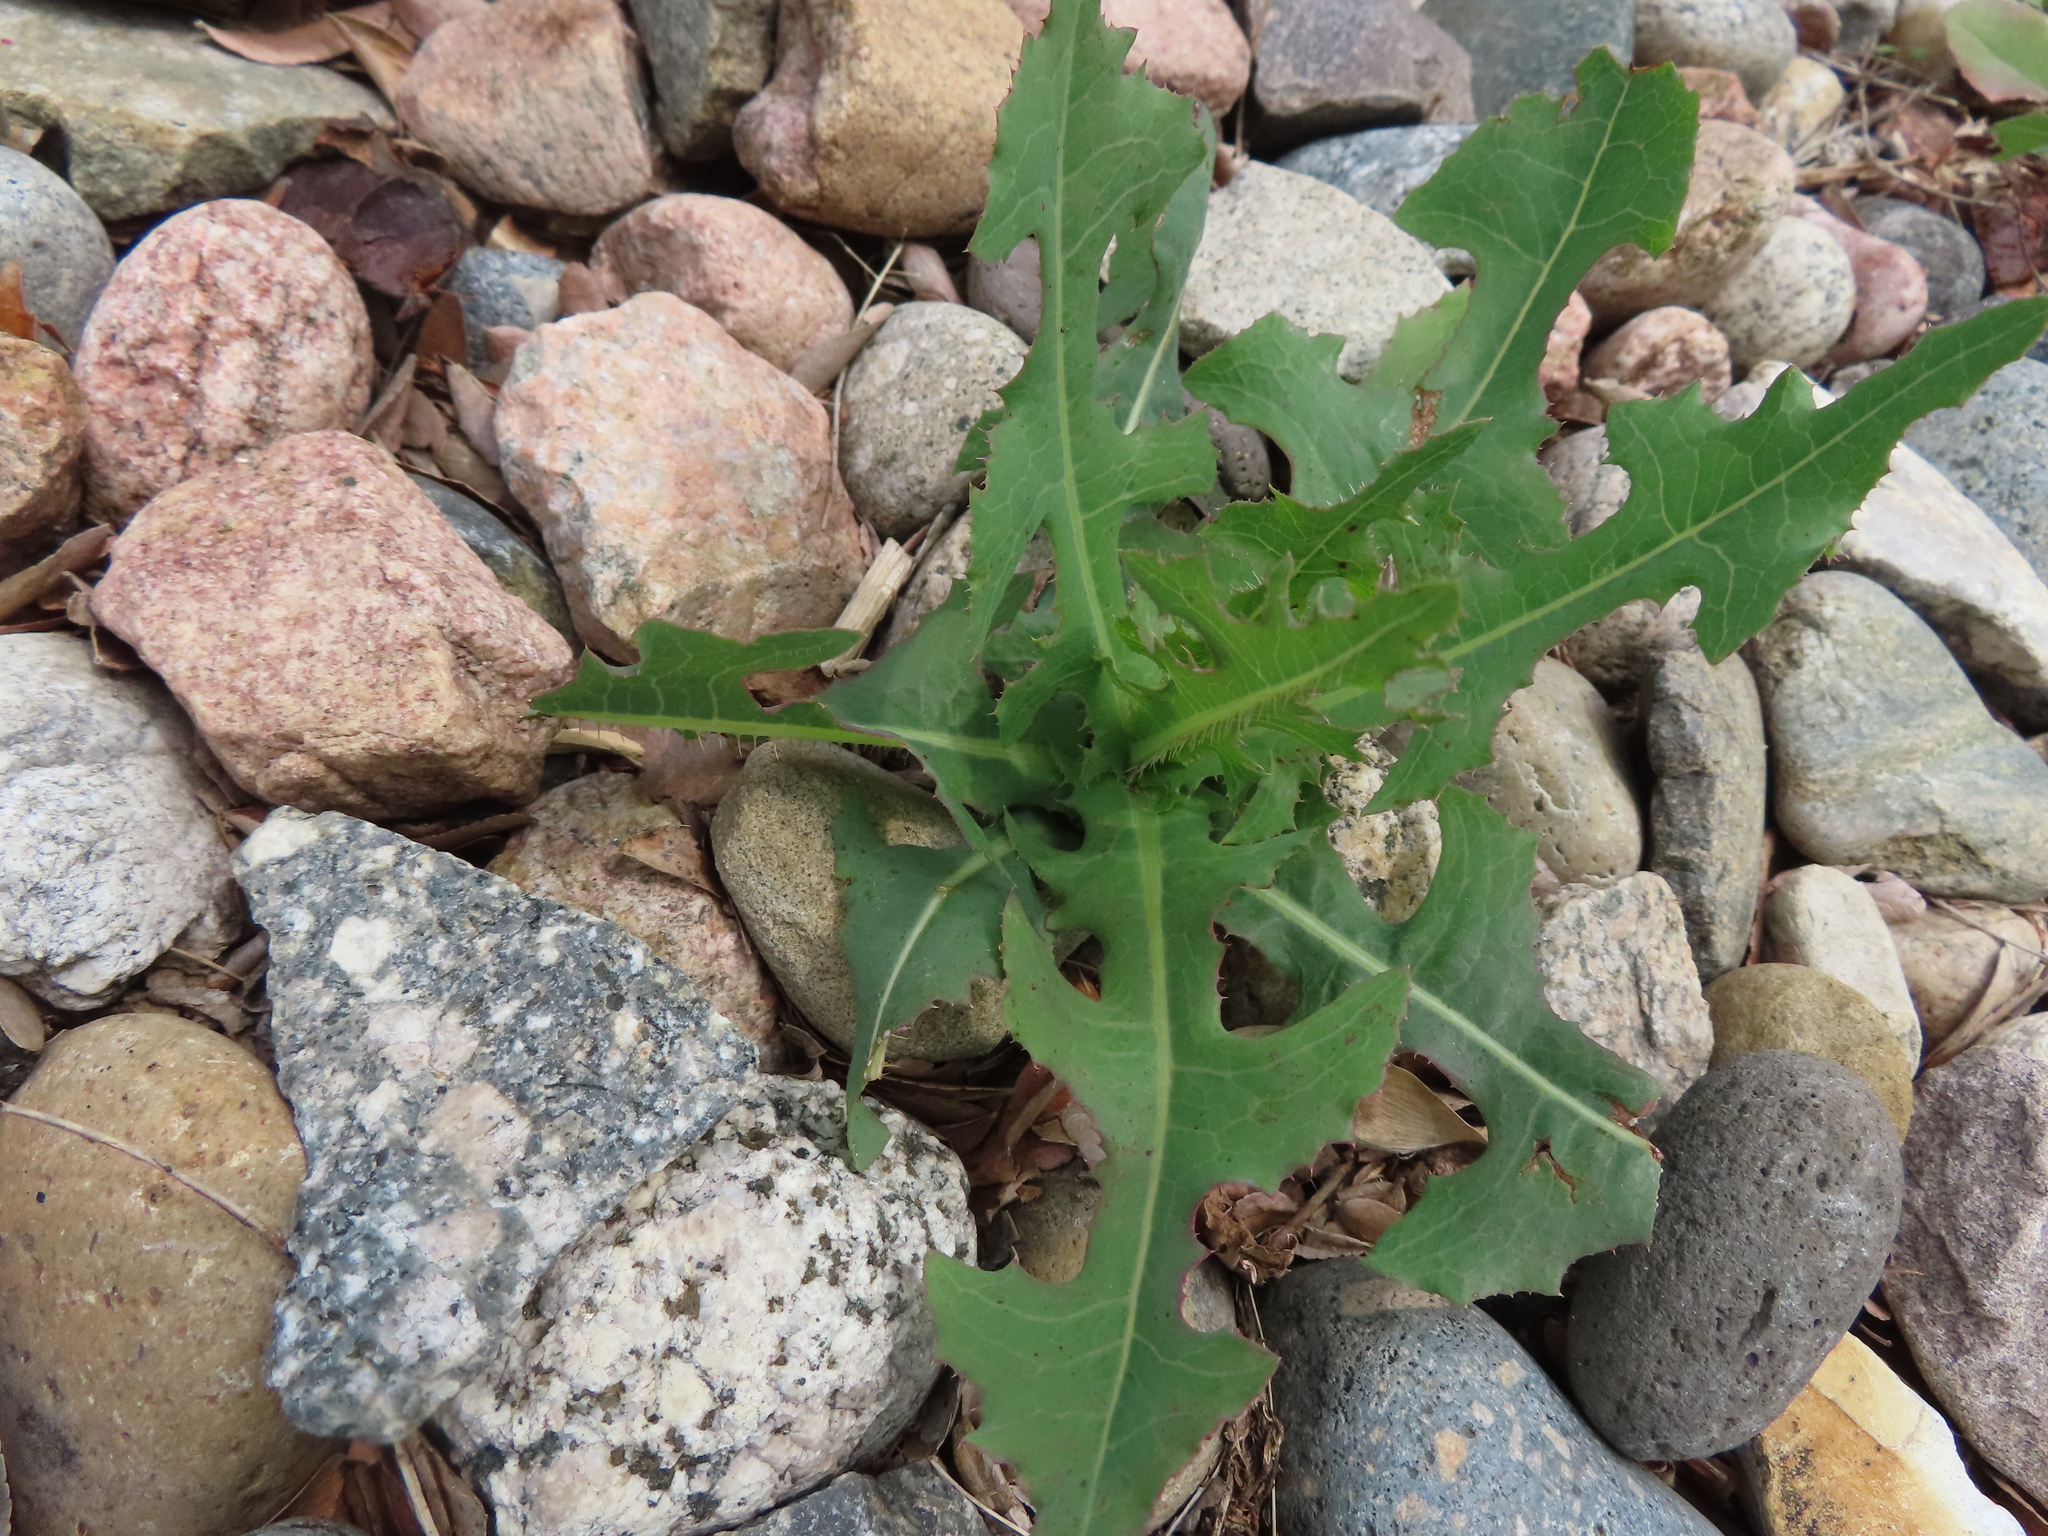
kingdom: Plantae
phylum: Tracheophyta
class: Magnoliopsida
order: Asterales
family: Asteraceae
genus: Lactuca
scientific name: Lactuca serriola
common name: Prickly lettuce
